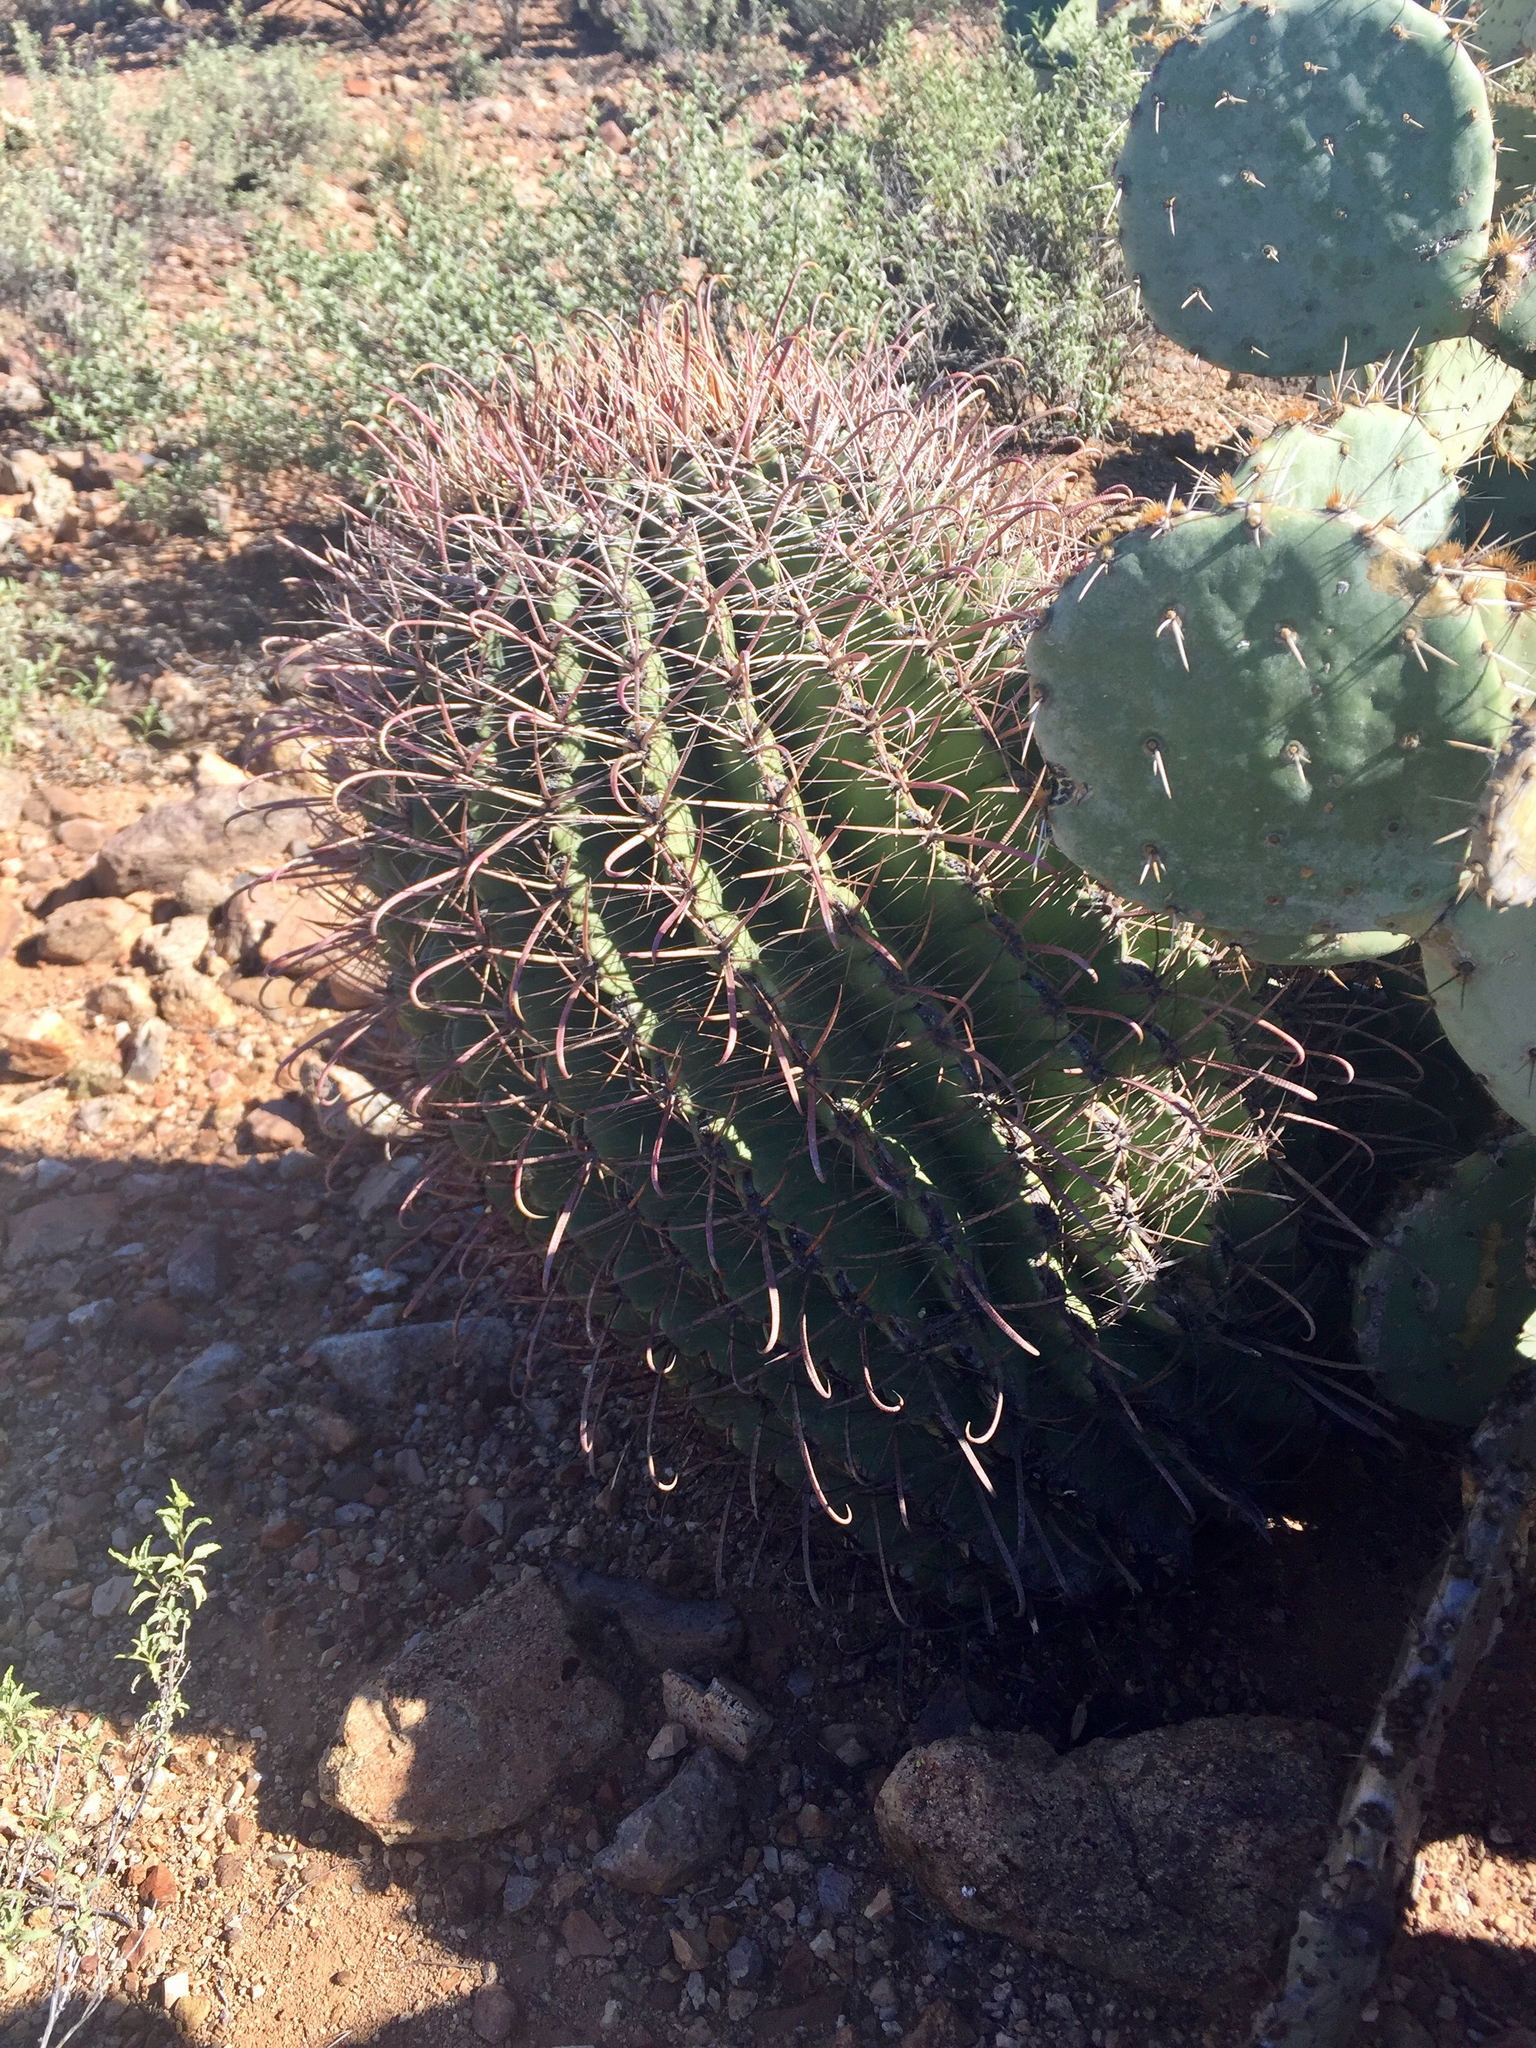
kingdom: Plantae
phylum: Tracheophyta
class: Magnoliopsida
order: Caryophyllales
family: Cactaceae
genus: Ferocactus
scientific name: Ferocactus wislizeni
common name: Candy barrel cactus
